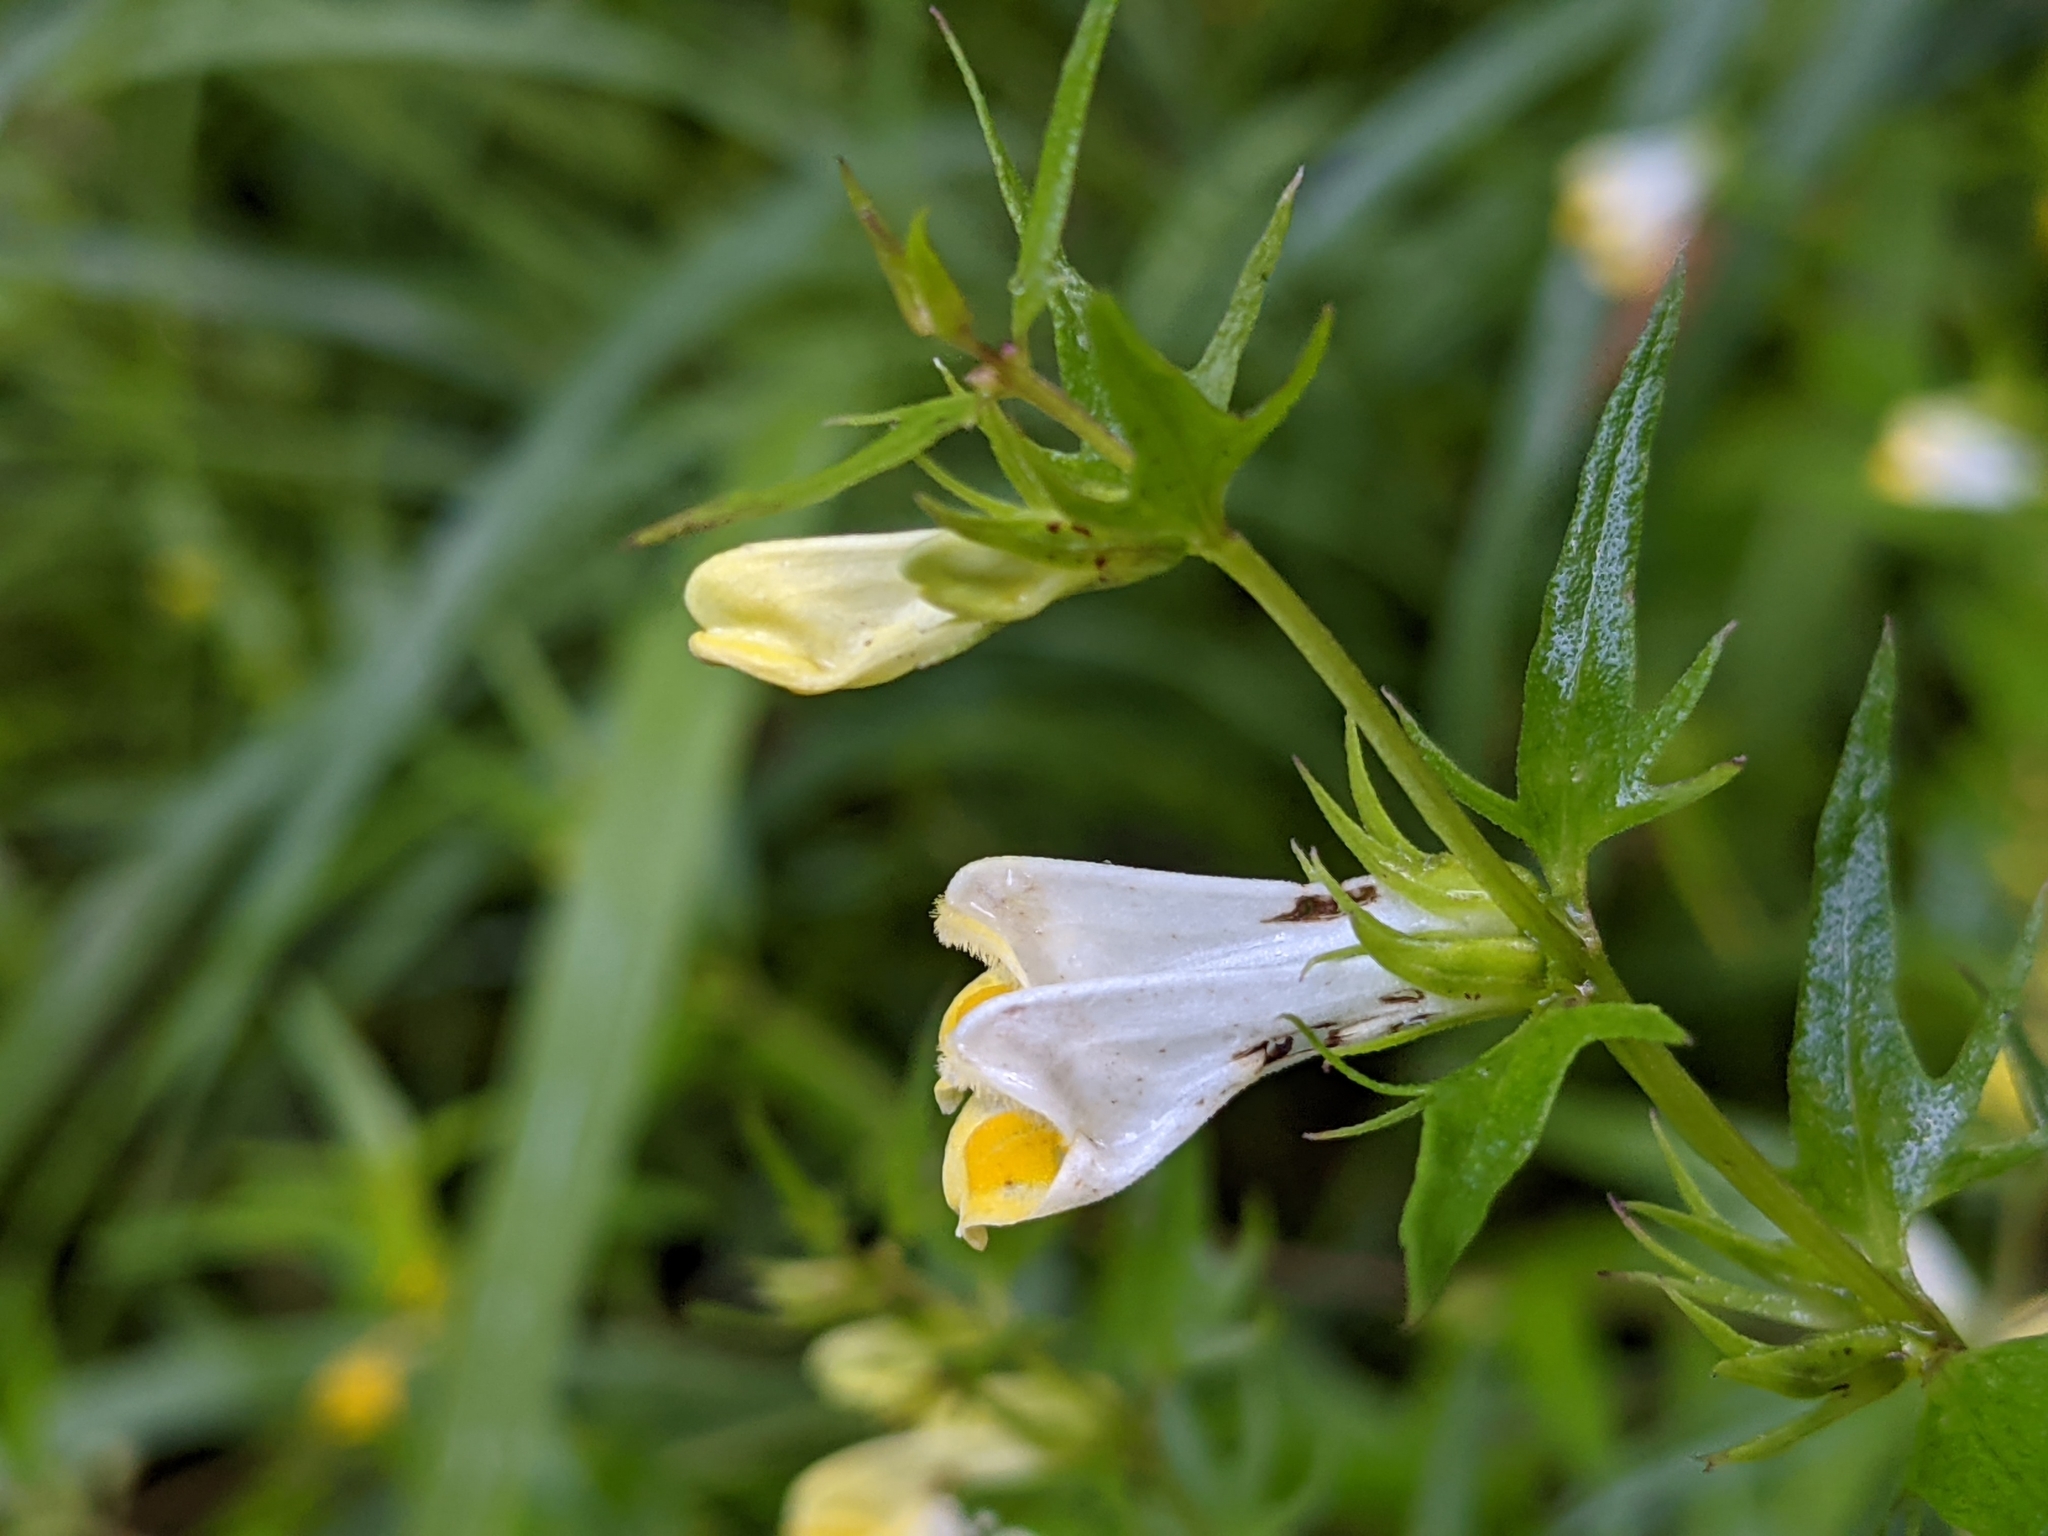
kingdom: Plantae
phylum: Tracheophyta
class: Magnoliopsida
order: Lamiales
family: Orobanchaceae
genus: Melampyrum
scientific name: Melampyrum pratense
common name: Common cow-wheat
